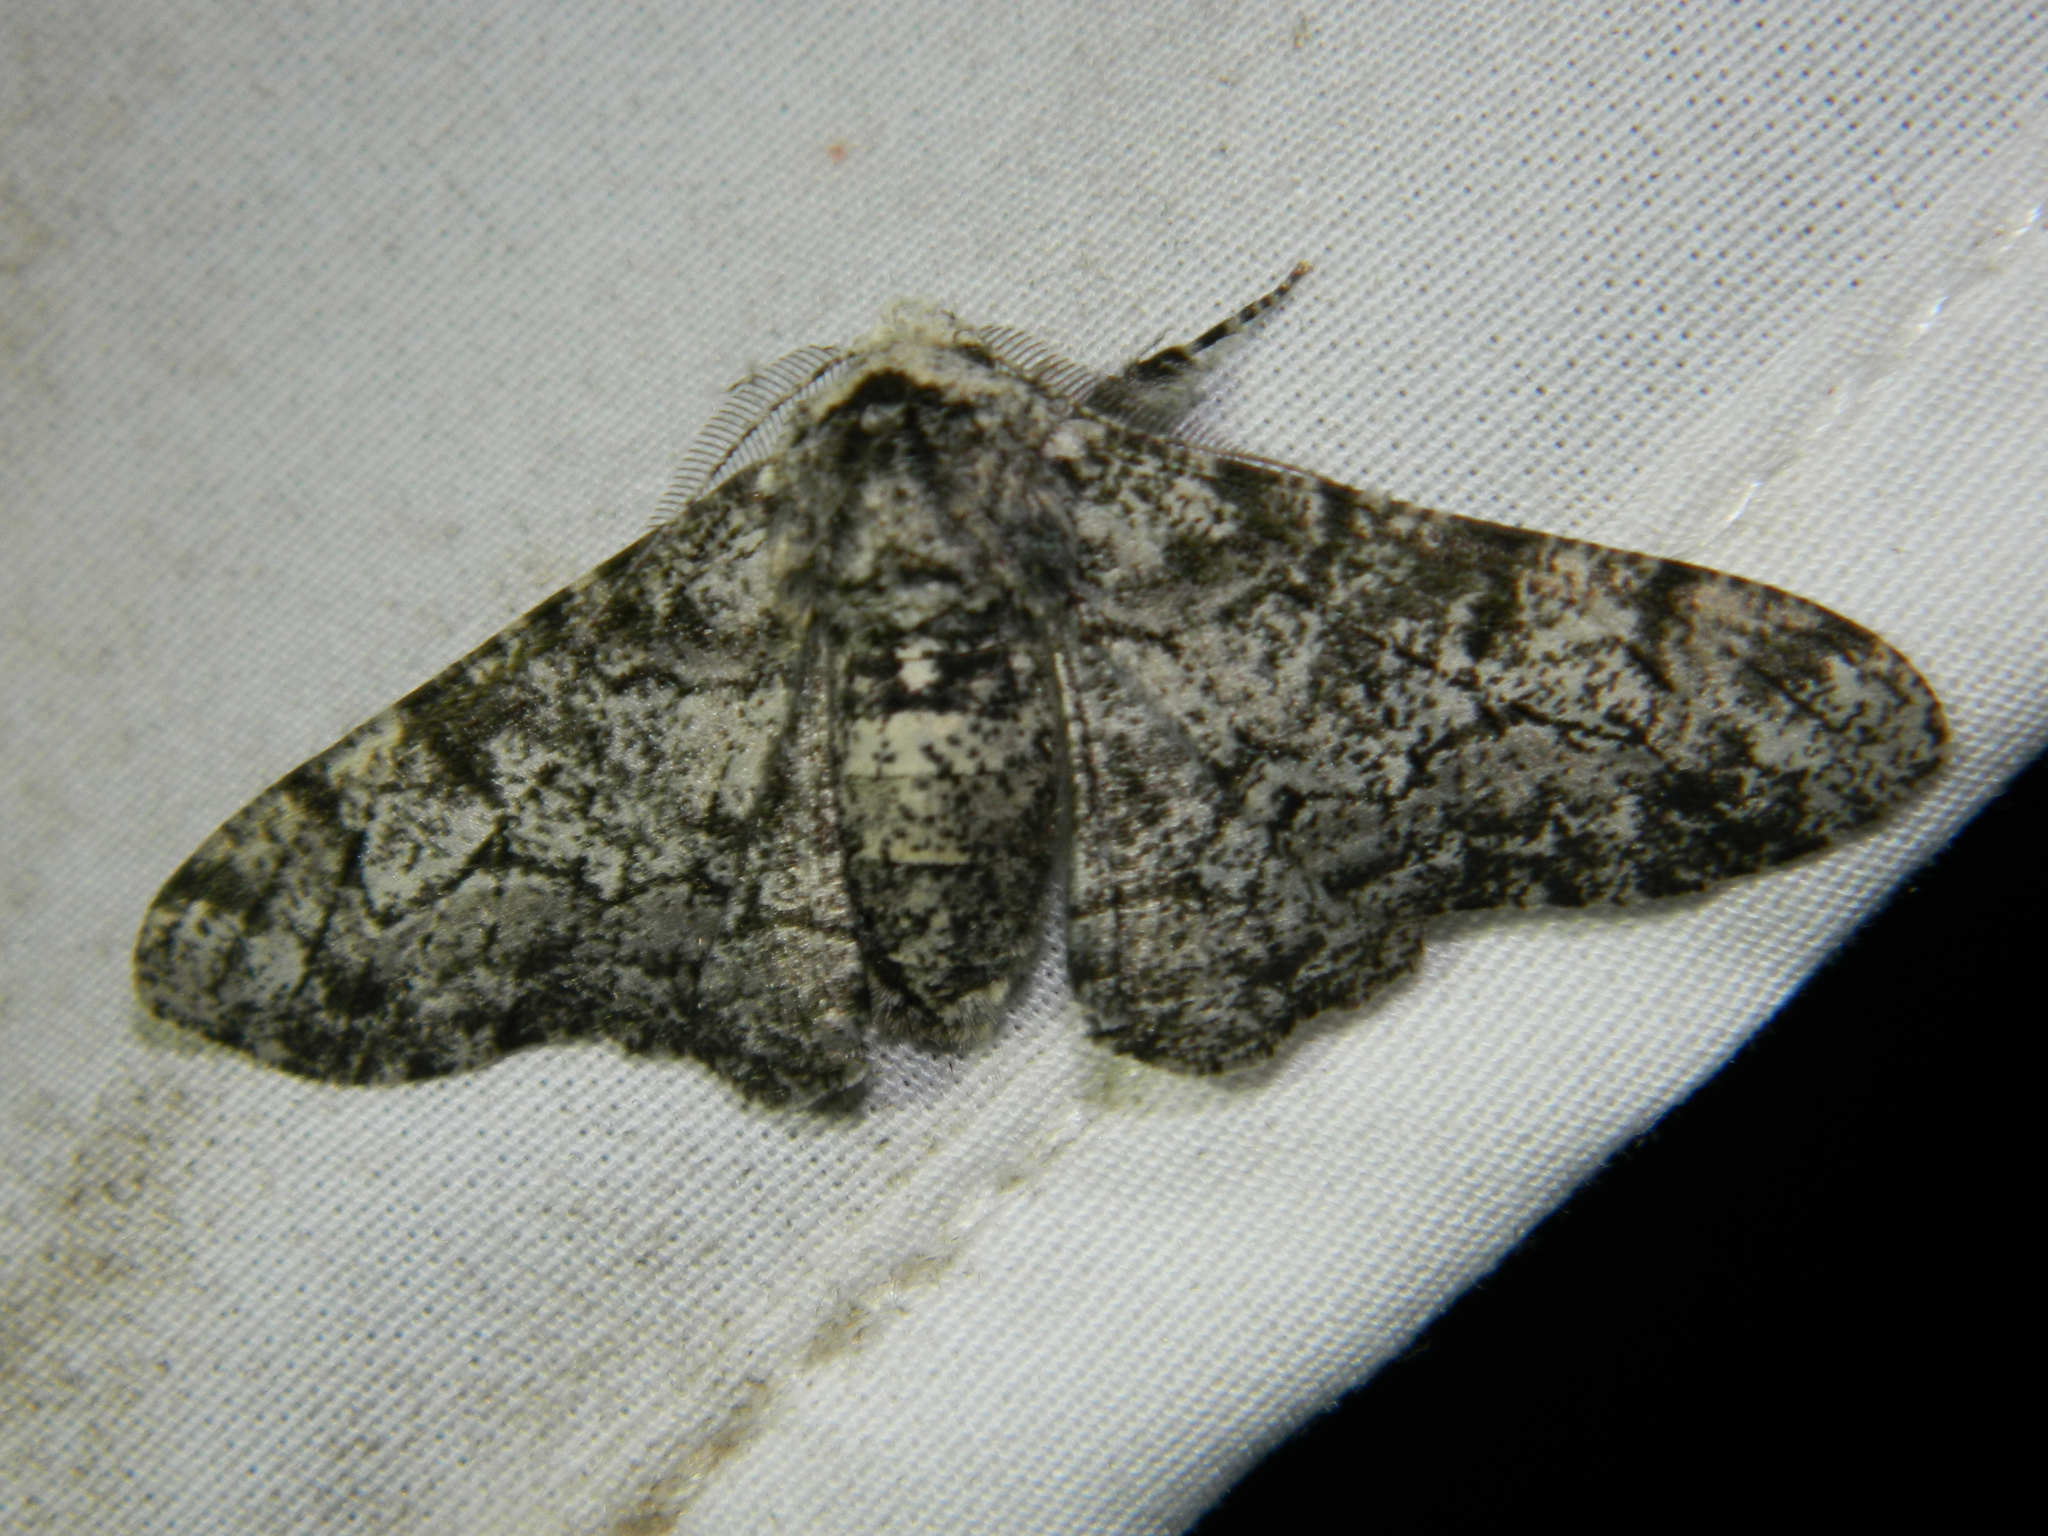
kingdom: Animalia
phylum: Arthropoda
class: Insecta
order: Lepidoptera
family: Geometridae
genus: Biston
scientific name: Biston betularia
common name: Peppered moth
